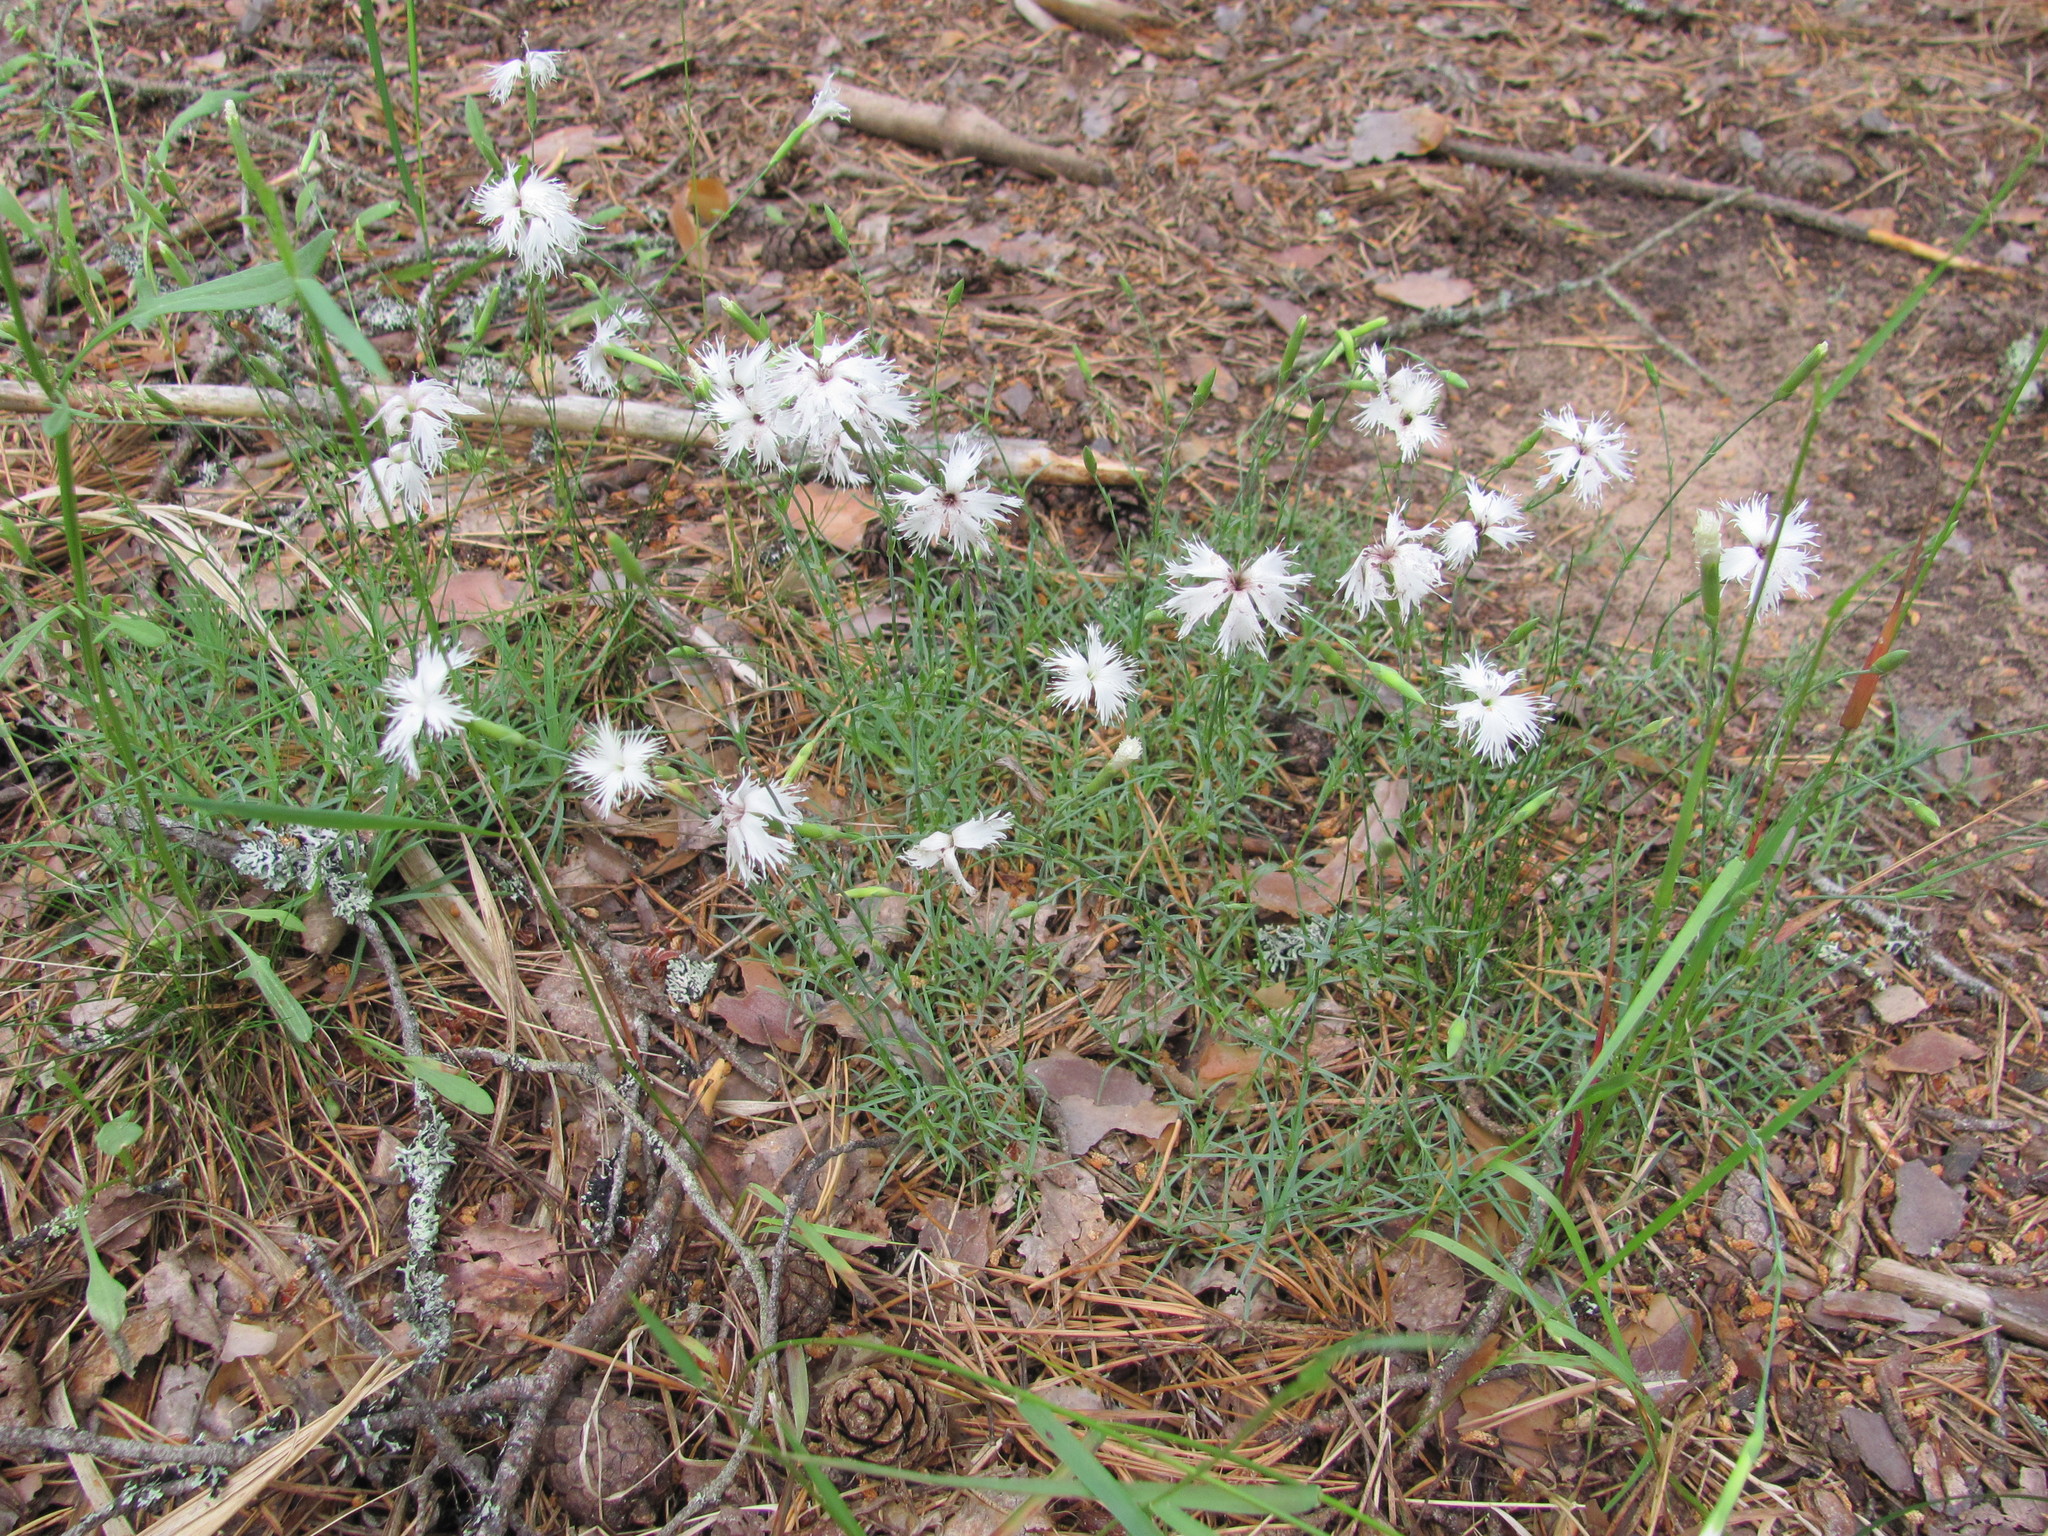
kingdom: Plantae
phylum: Tracheophyta
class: Magnoliopsida
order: Caryophyllales
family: Caryophyllaceae
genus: Dianthus
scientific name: Dianthus arenarius
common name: Stone pink
